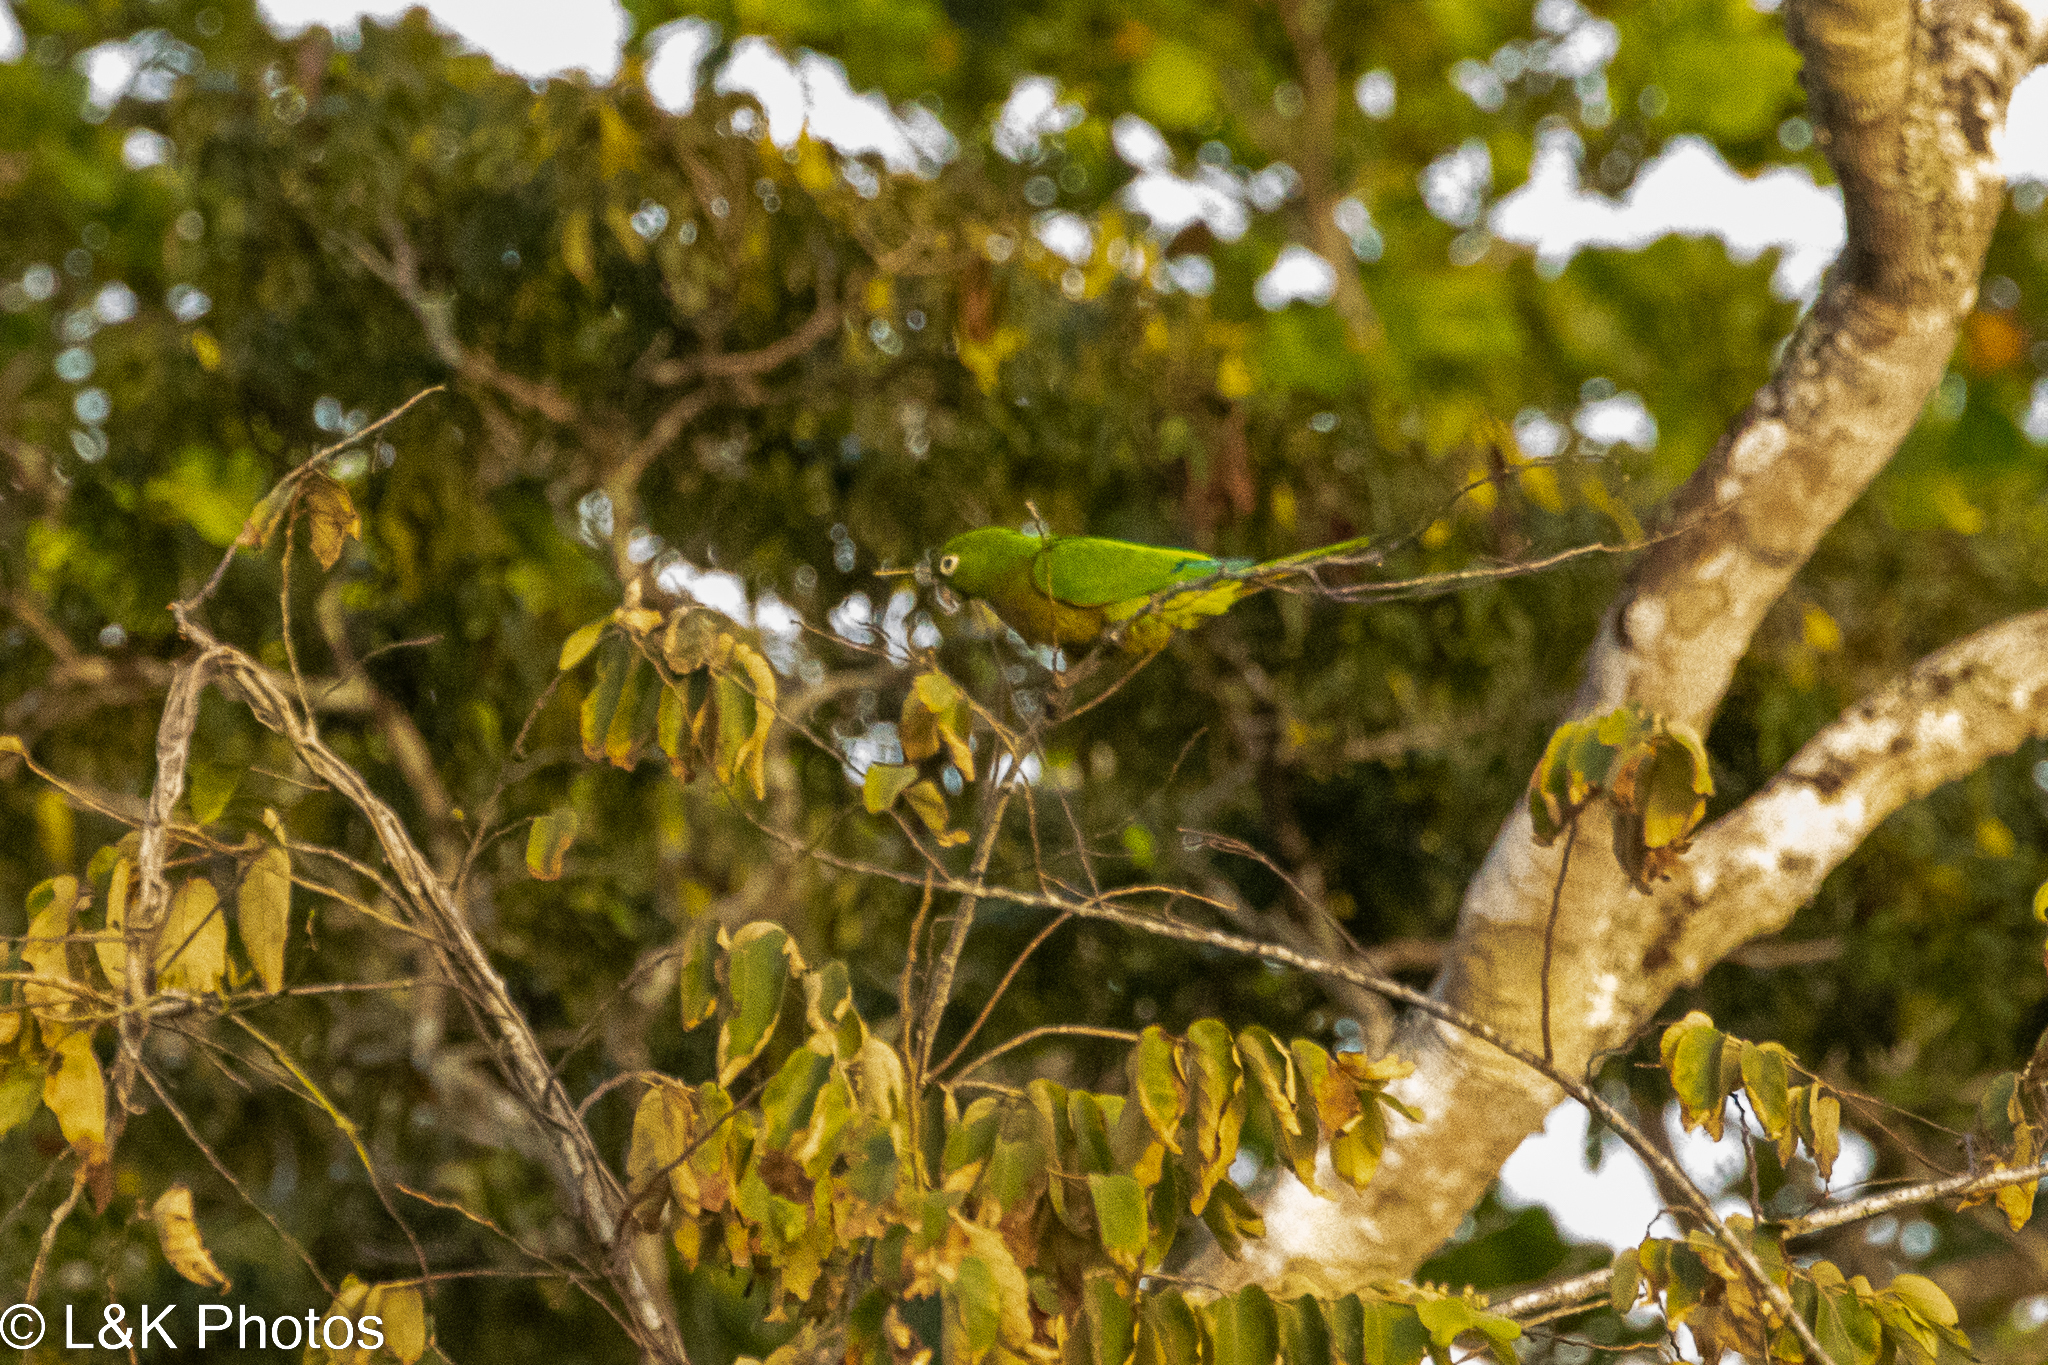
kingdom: Animalia
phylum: Chordata
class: Aves
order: Psittaciformes
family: Psittacidae
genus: Aratinga
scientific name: Aratinga nana
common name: Olive-throated parakeet
